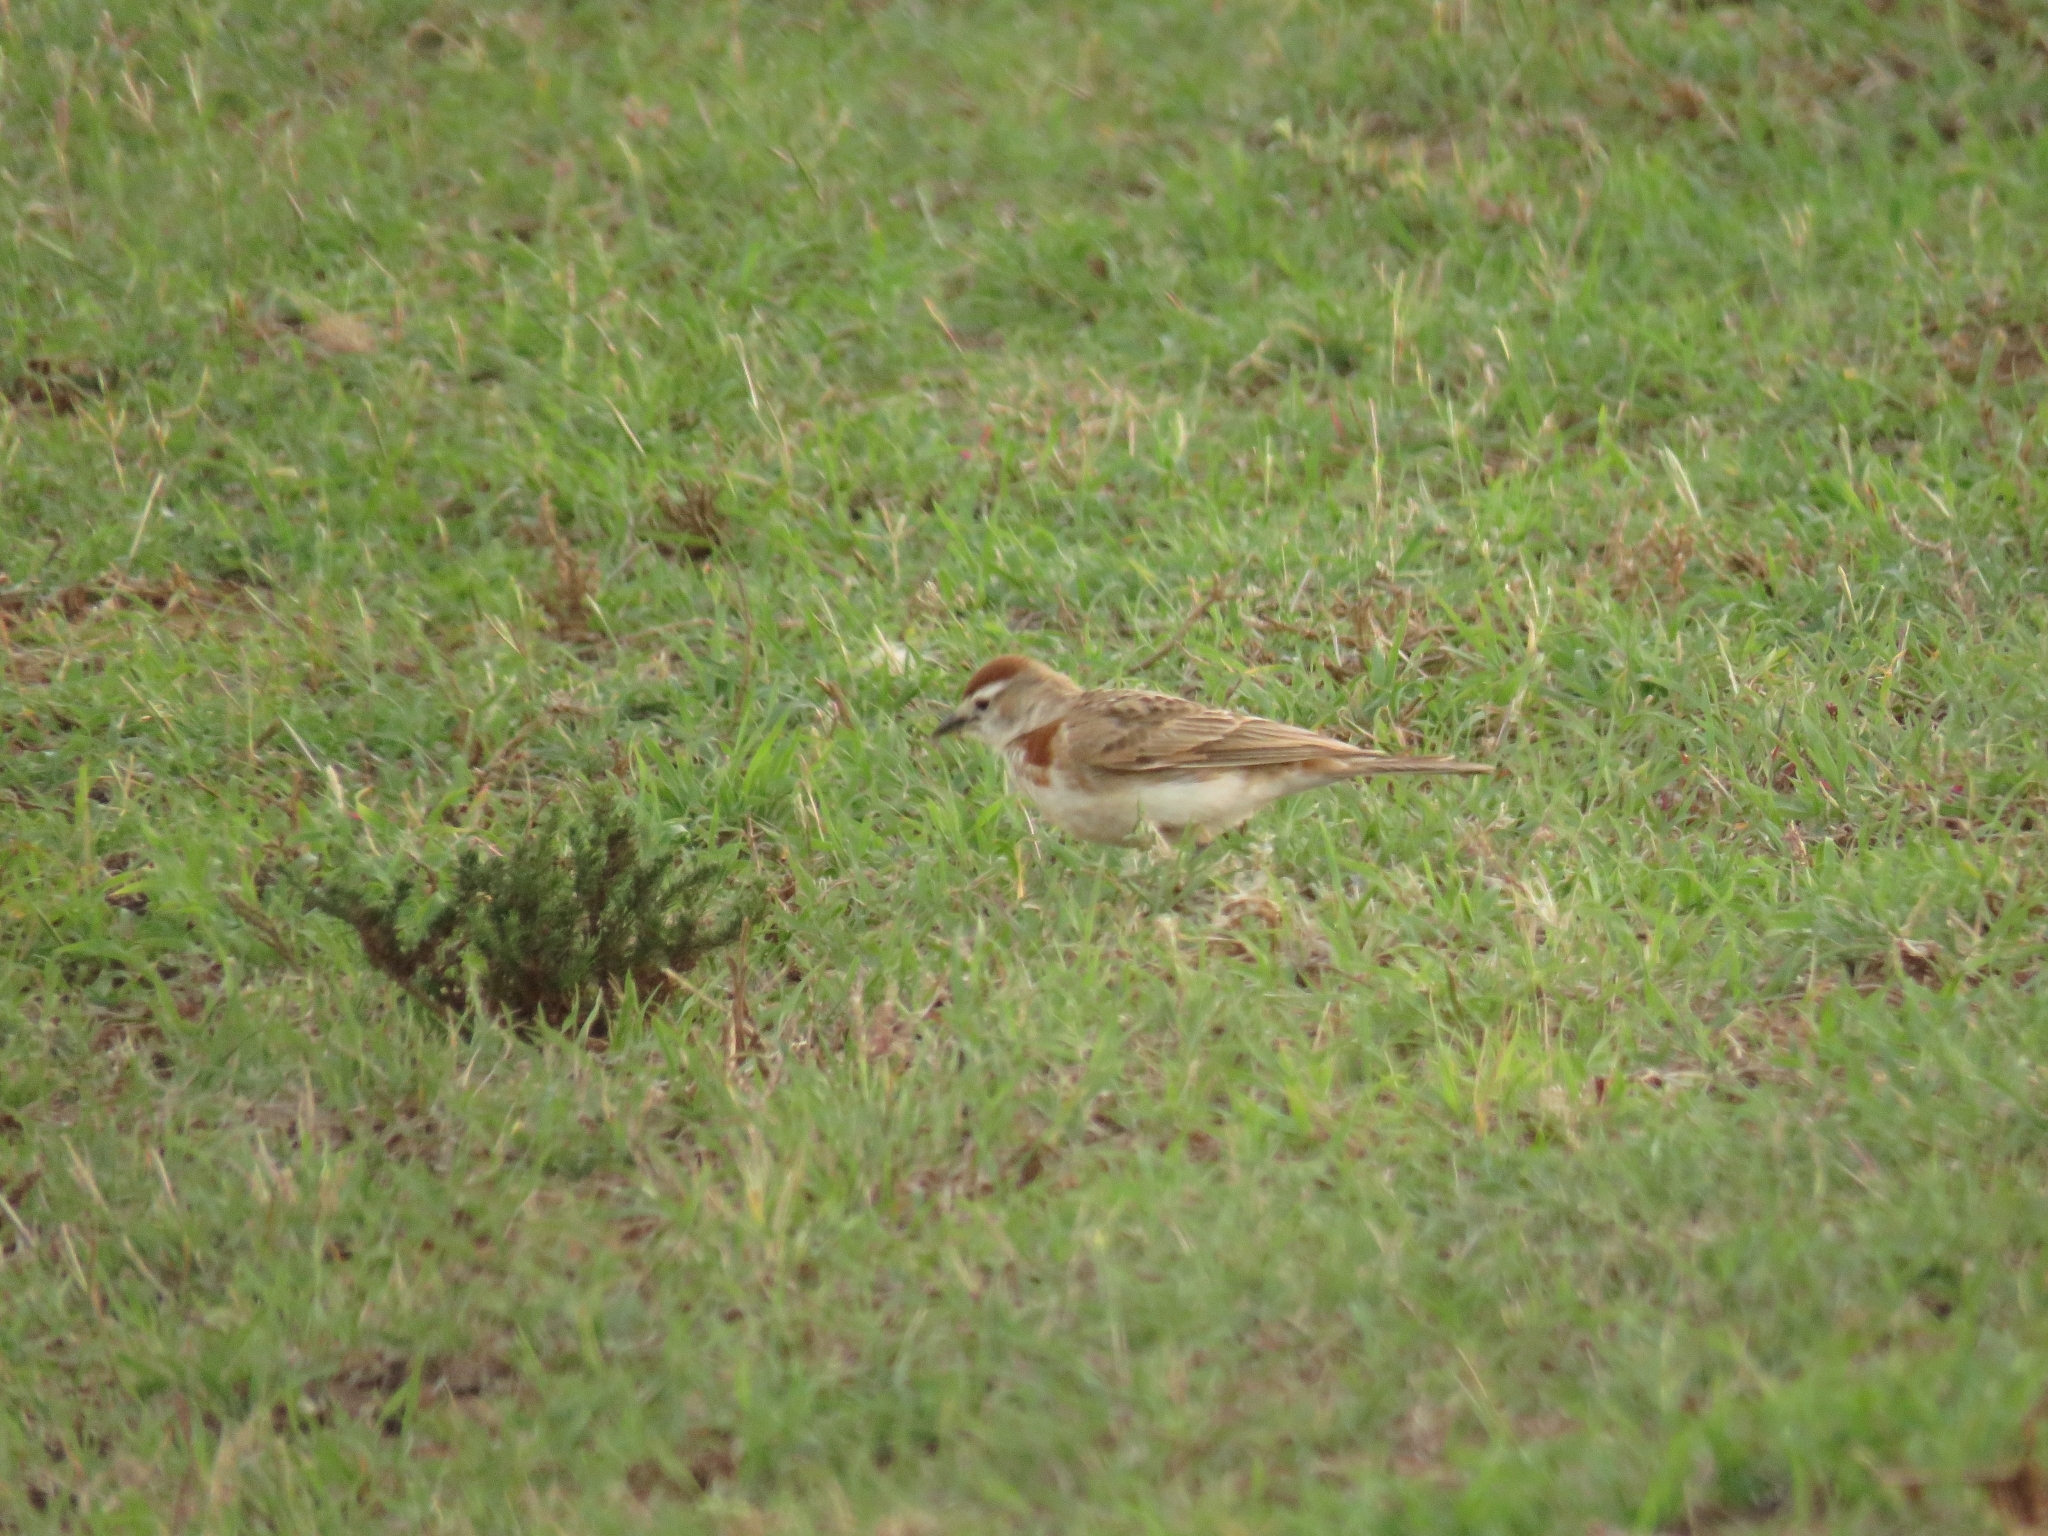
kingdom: Animalia
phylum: Chordata
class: Aves
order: Passeriformes
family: Alaudidae
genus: Calandrella
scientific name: Calandrella cinerea
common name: Red-capped lark
